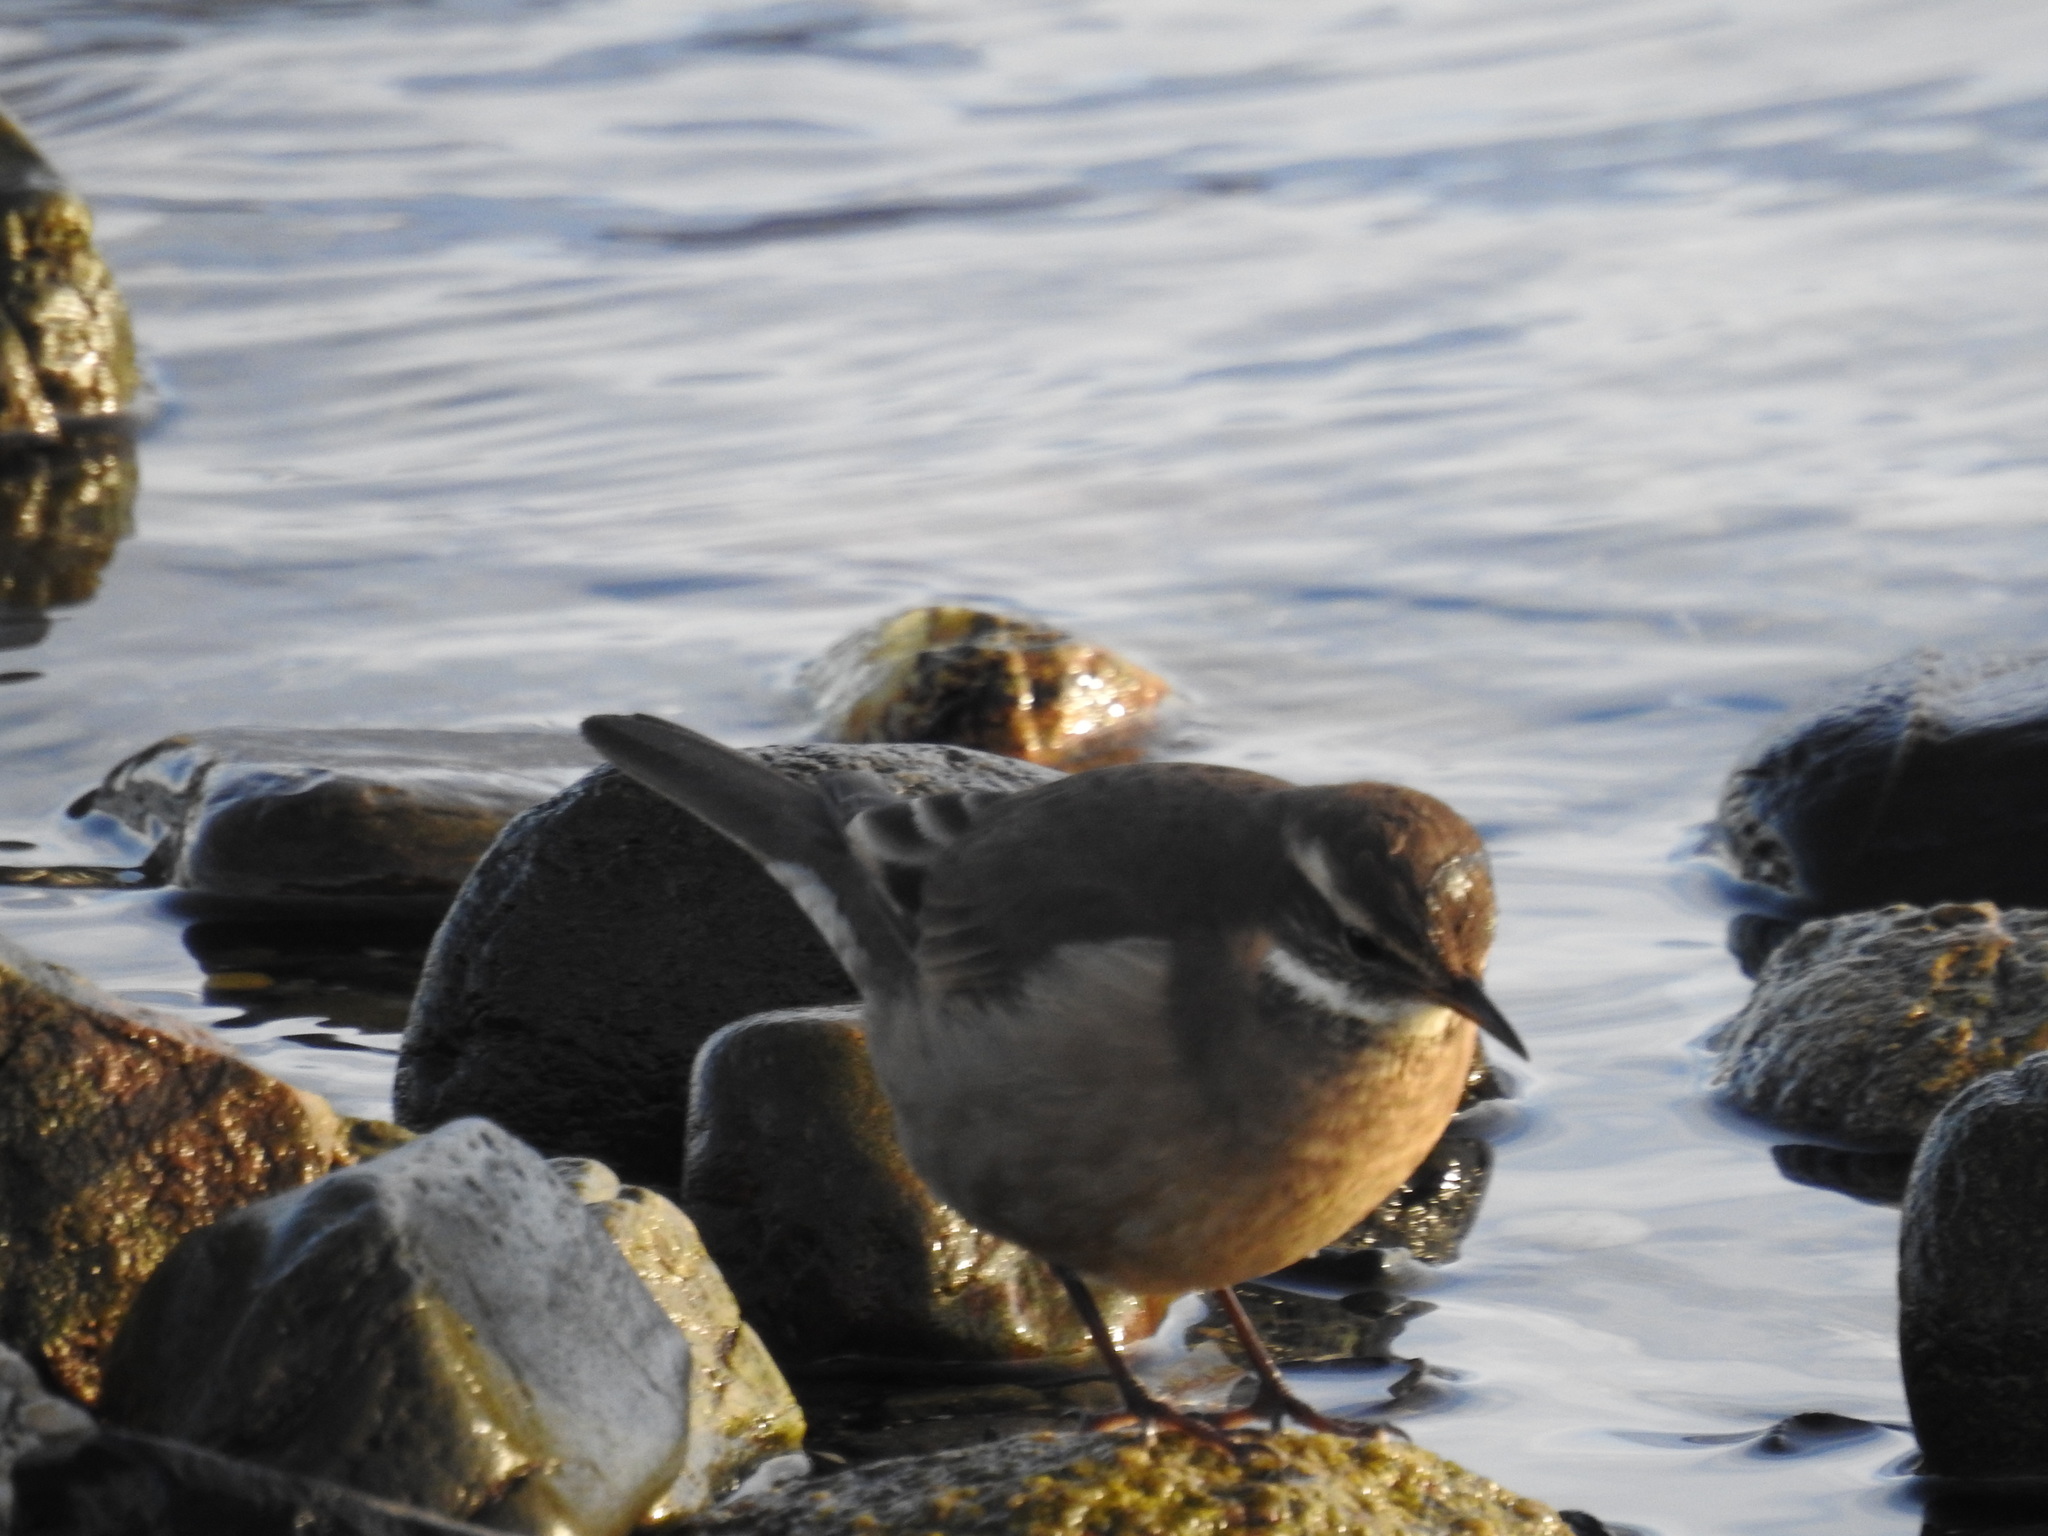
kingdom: Animalia
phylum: Chordata
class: Aves
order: Passeriformes
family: Furnariidae
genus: Cinclodes
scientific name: Cinclodes fuscus
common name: Buff-winged cinclodes
